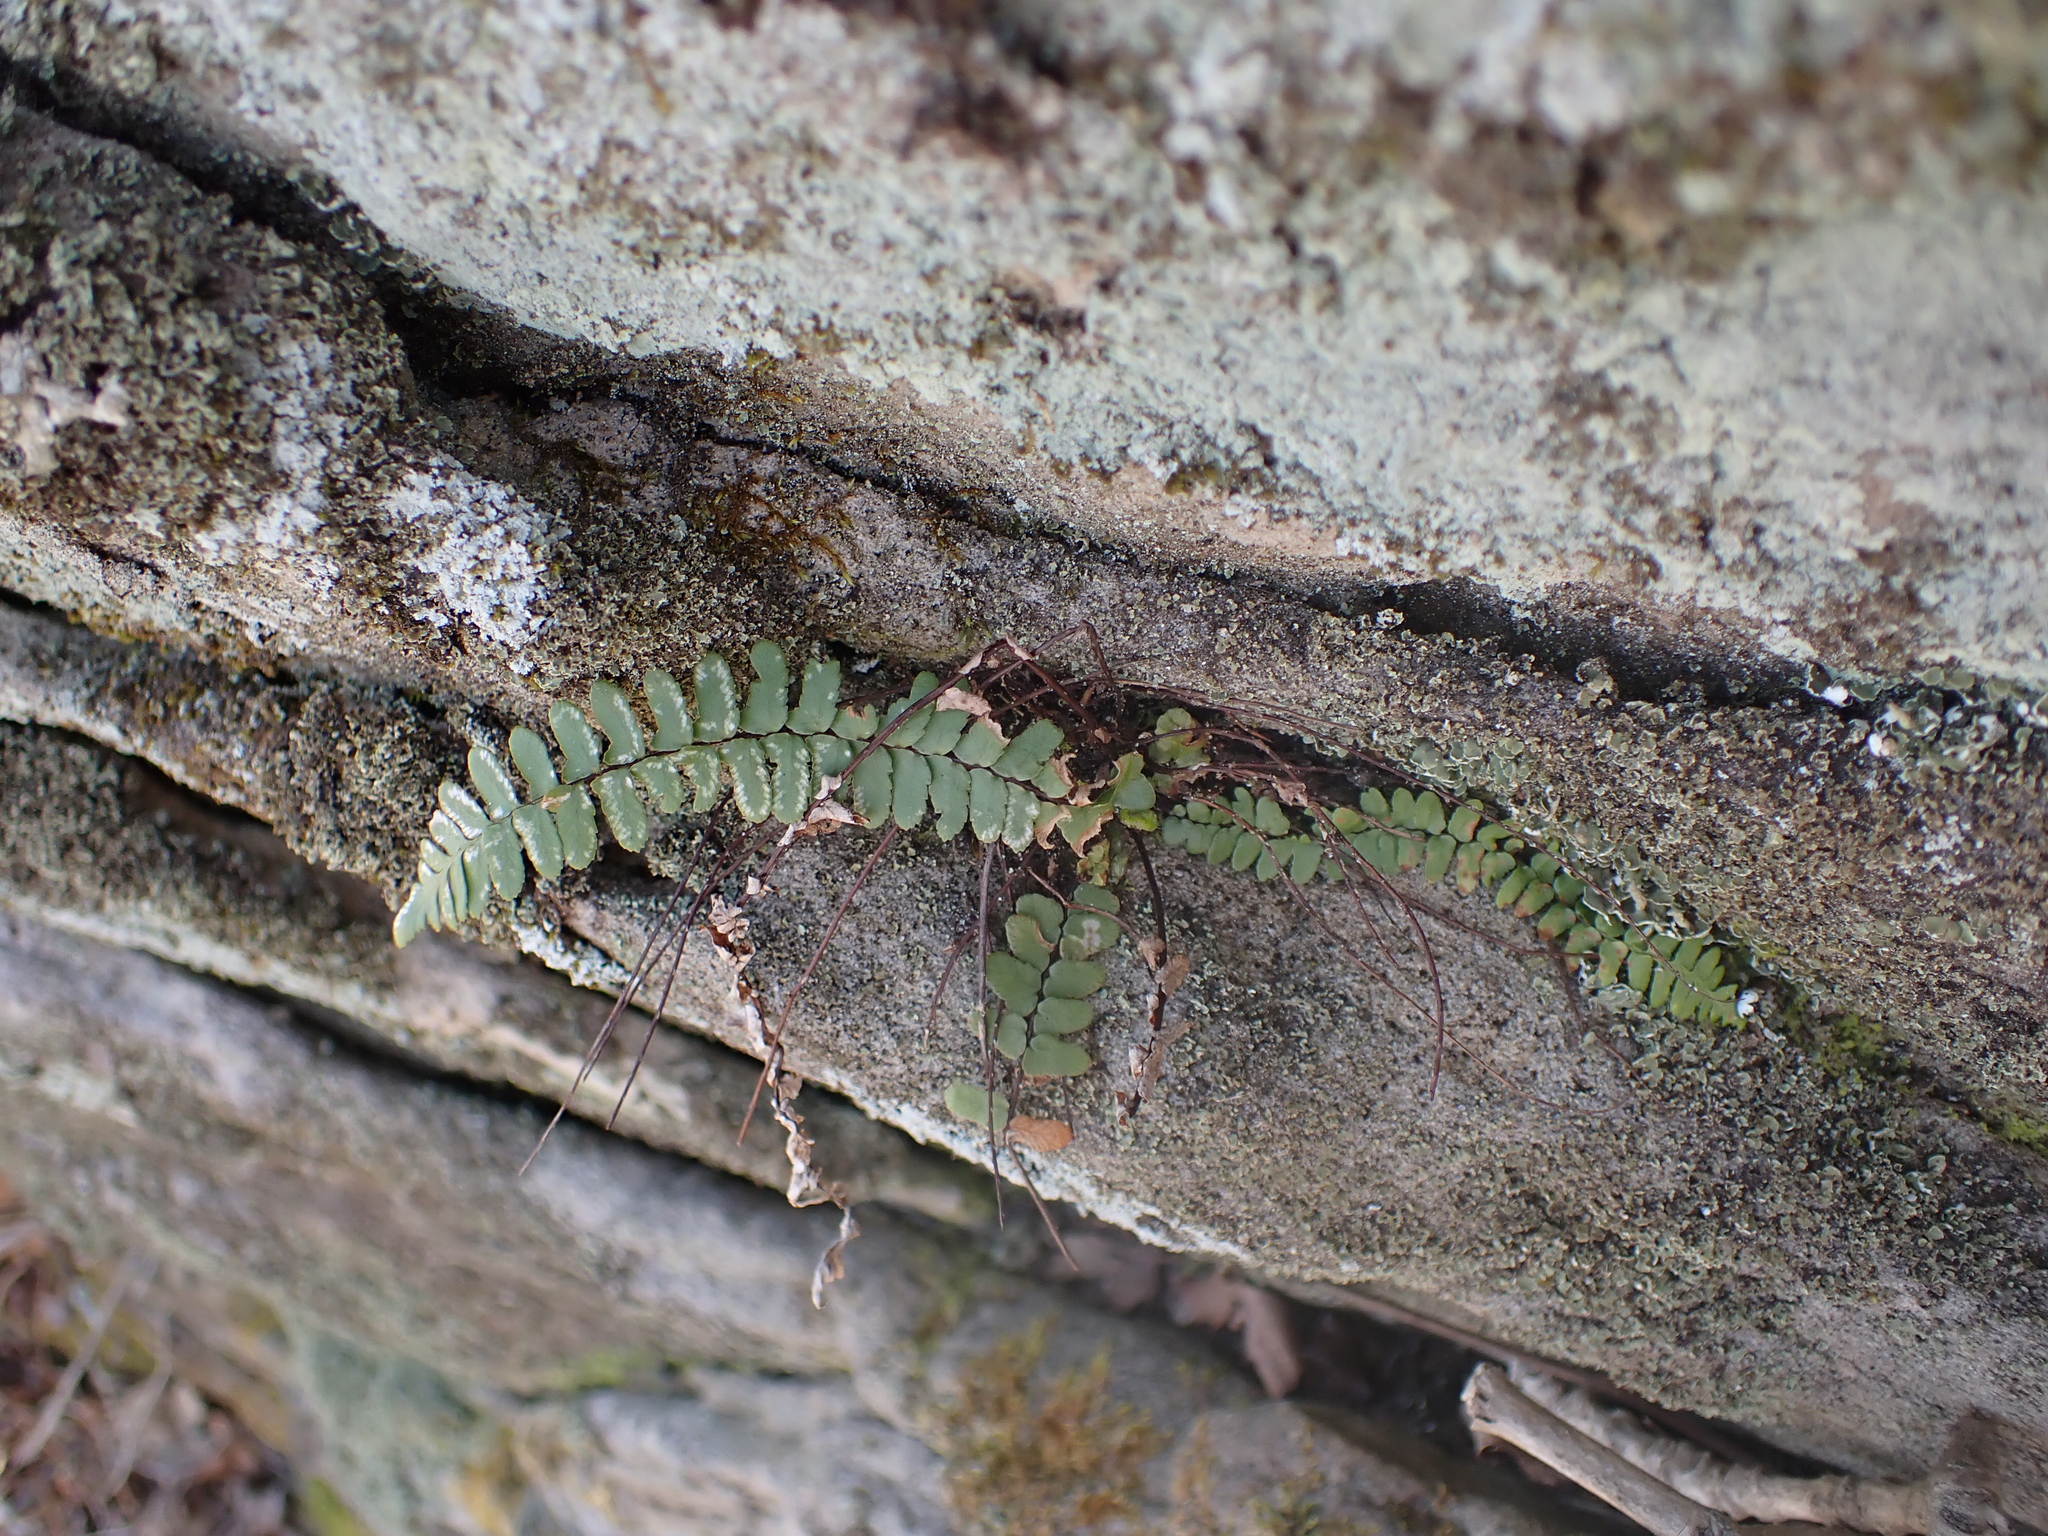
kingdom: Plantae
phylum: Tracheophyta
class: Polypodiopsida
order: Polypodiales
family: Aspleniaceae
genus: Asplenium
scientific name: Asplenium platyneuron
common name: Ebony spleenwort
